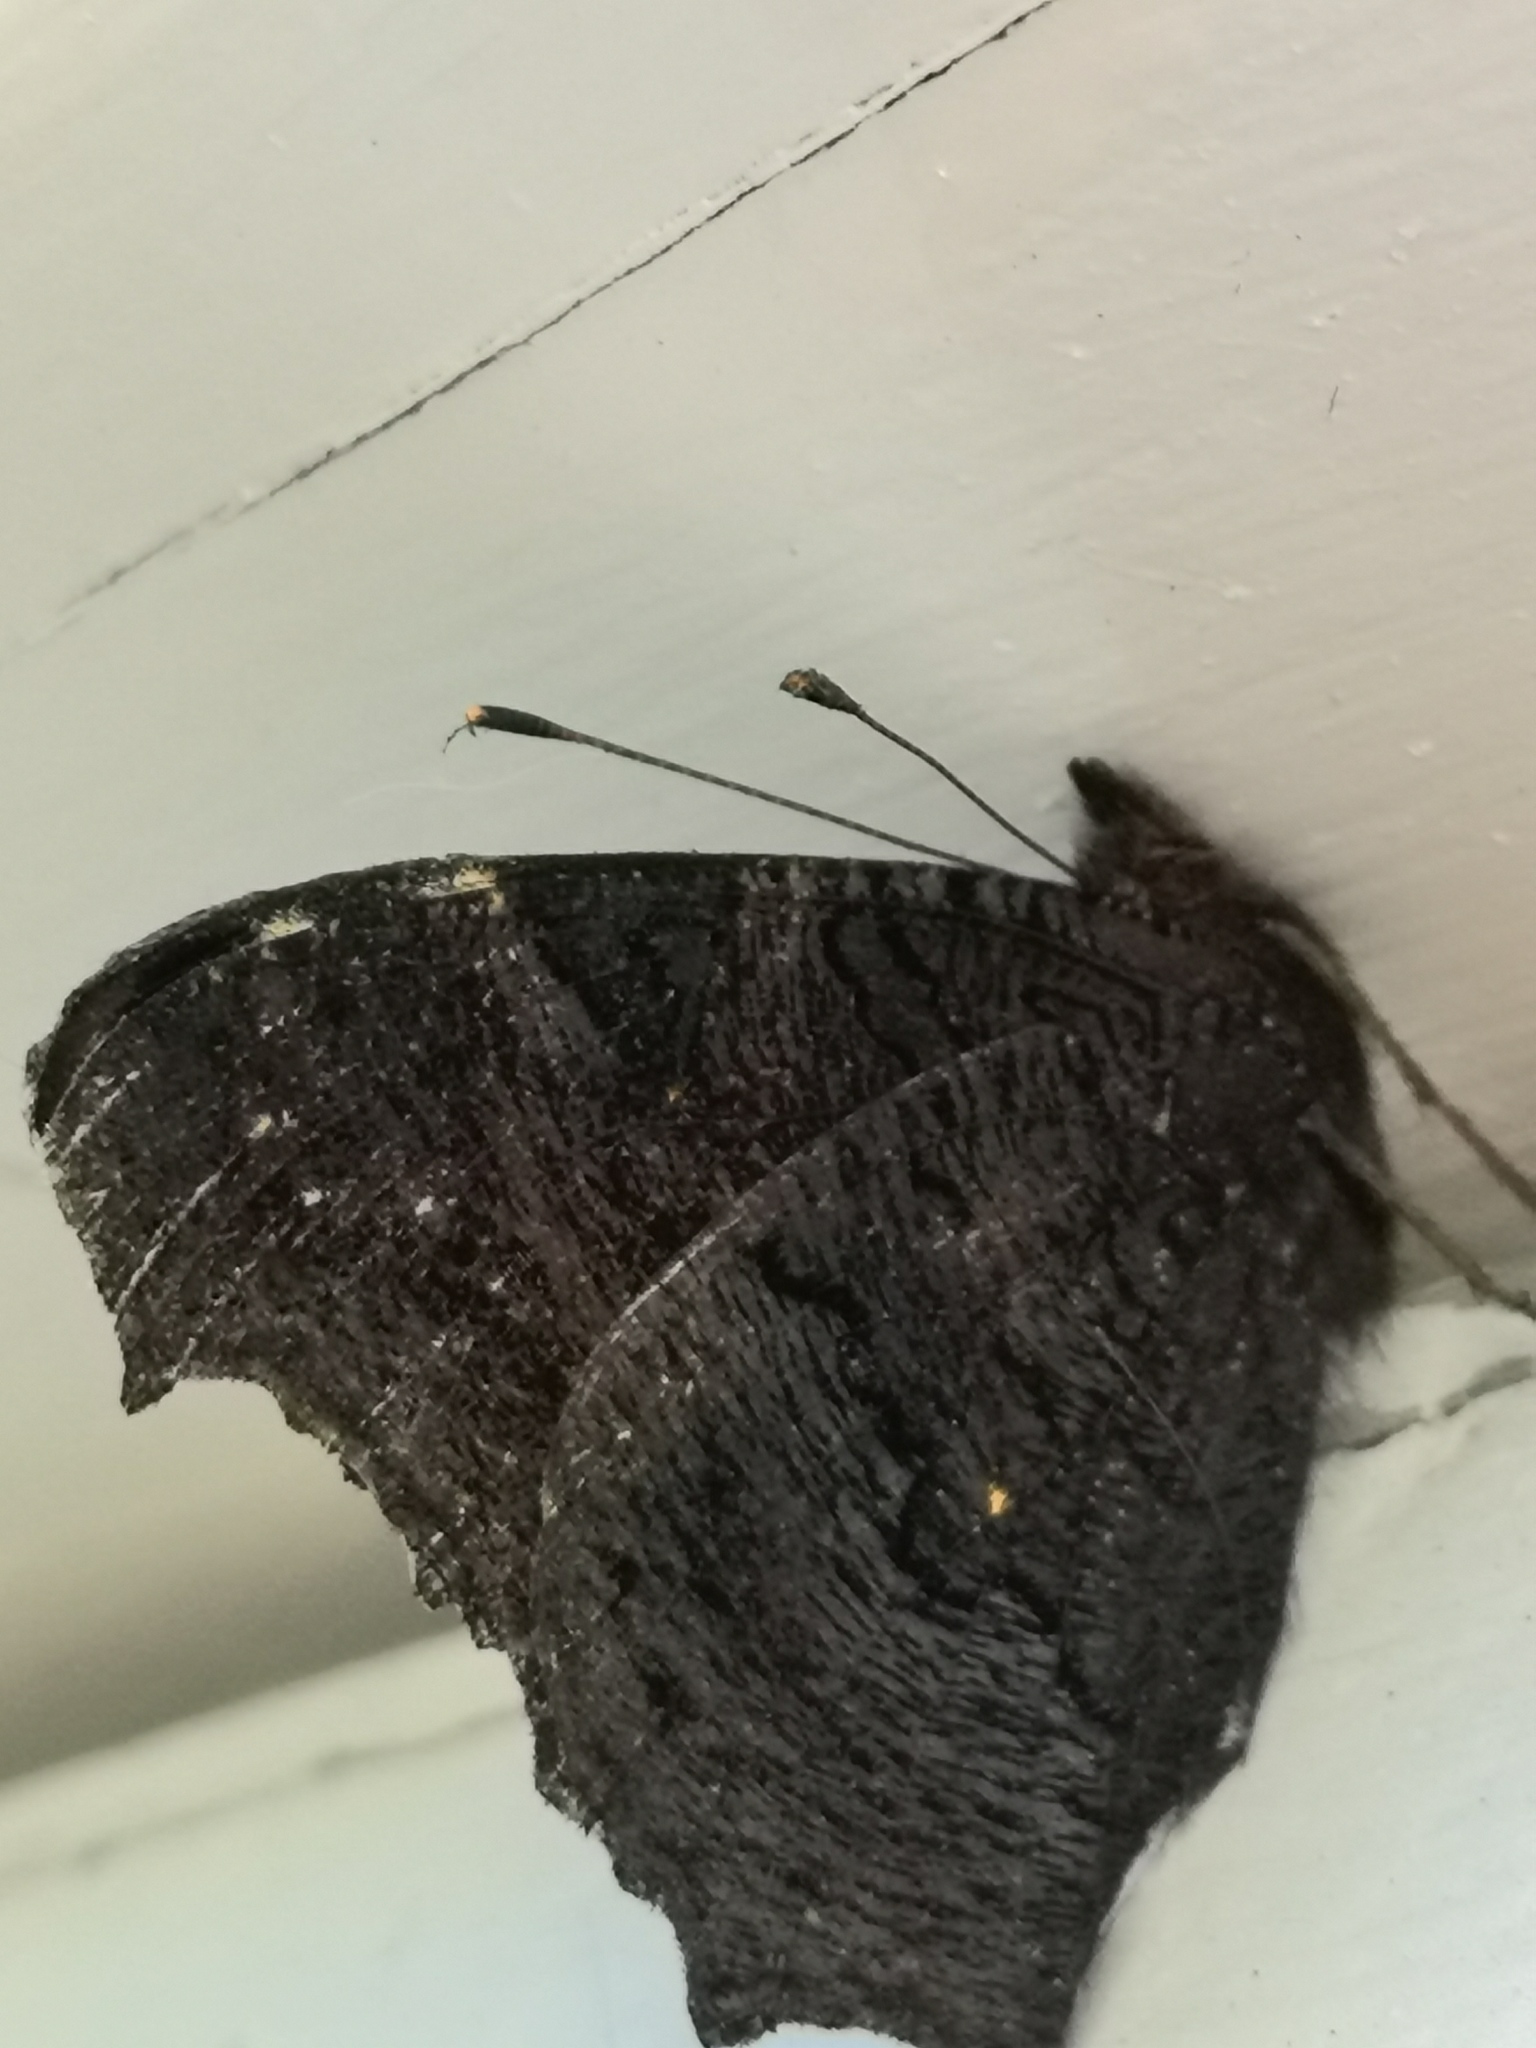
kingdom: Animalia
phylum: Arthropoda
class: Insecta
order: Lepidoptera
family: Nymphalidae
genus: Aglais
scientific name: Aglais io
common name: Peacock
